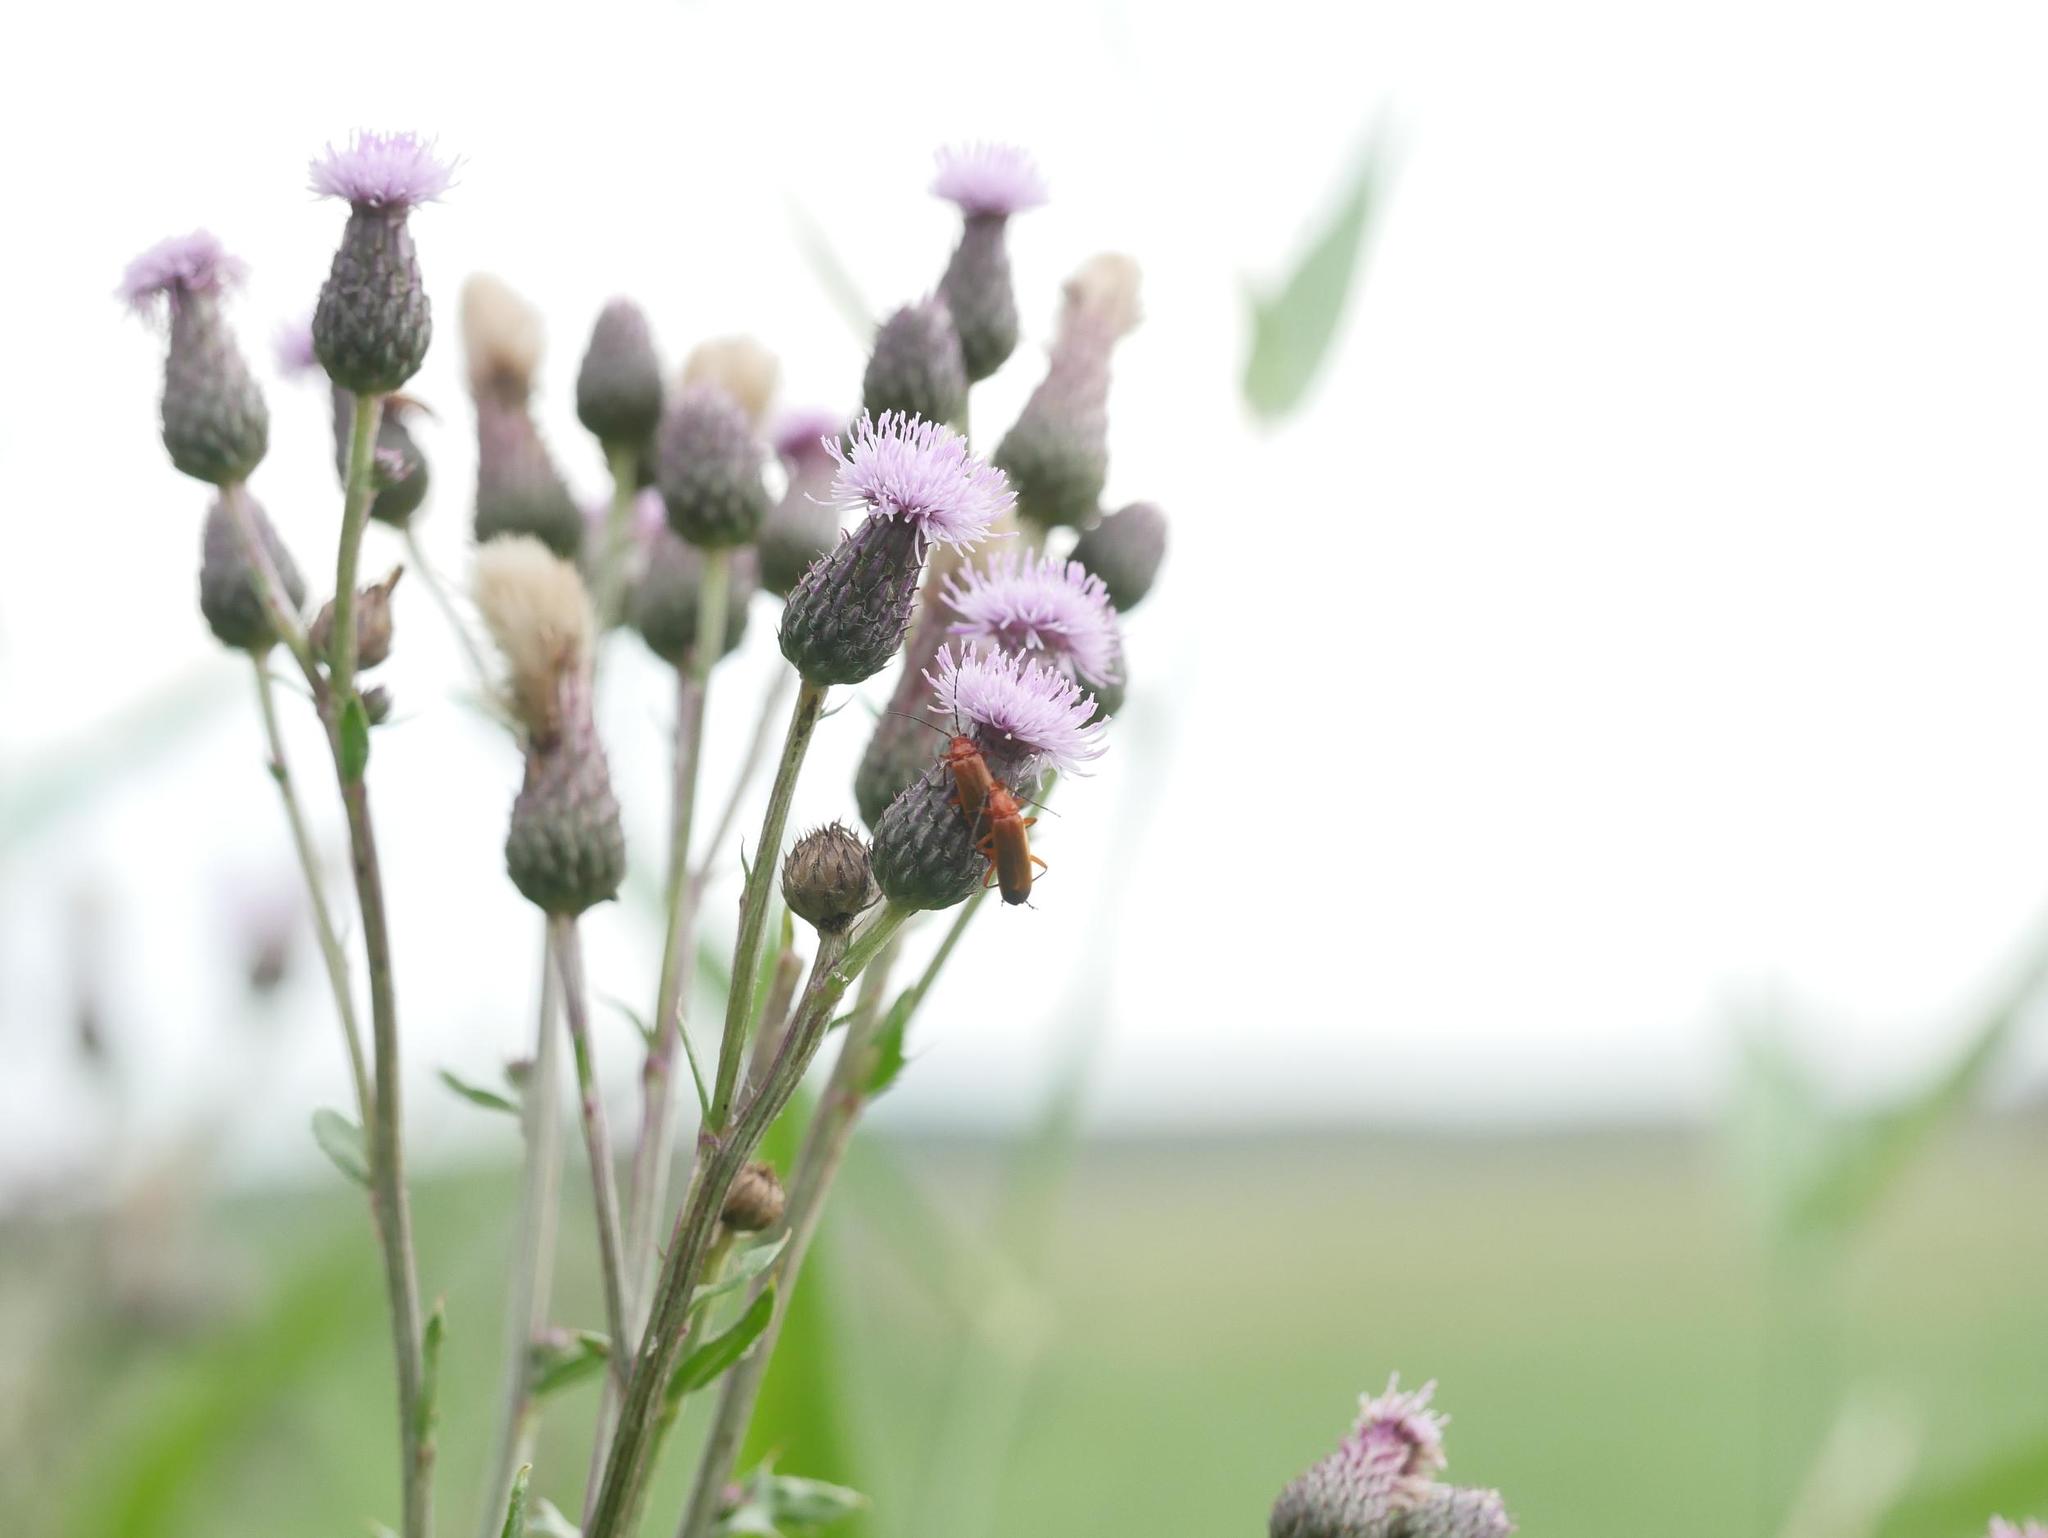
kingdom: Plantae
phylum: Tracheophyta
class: Magnoliopsida
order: Asterales
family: Asteraceae
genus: Cirsium
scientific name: Cirsium arvense
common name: Creeping thistle
